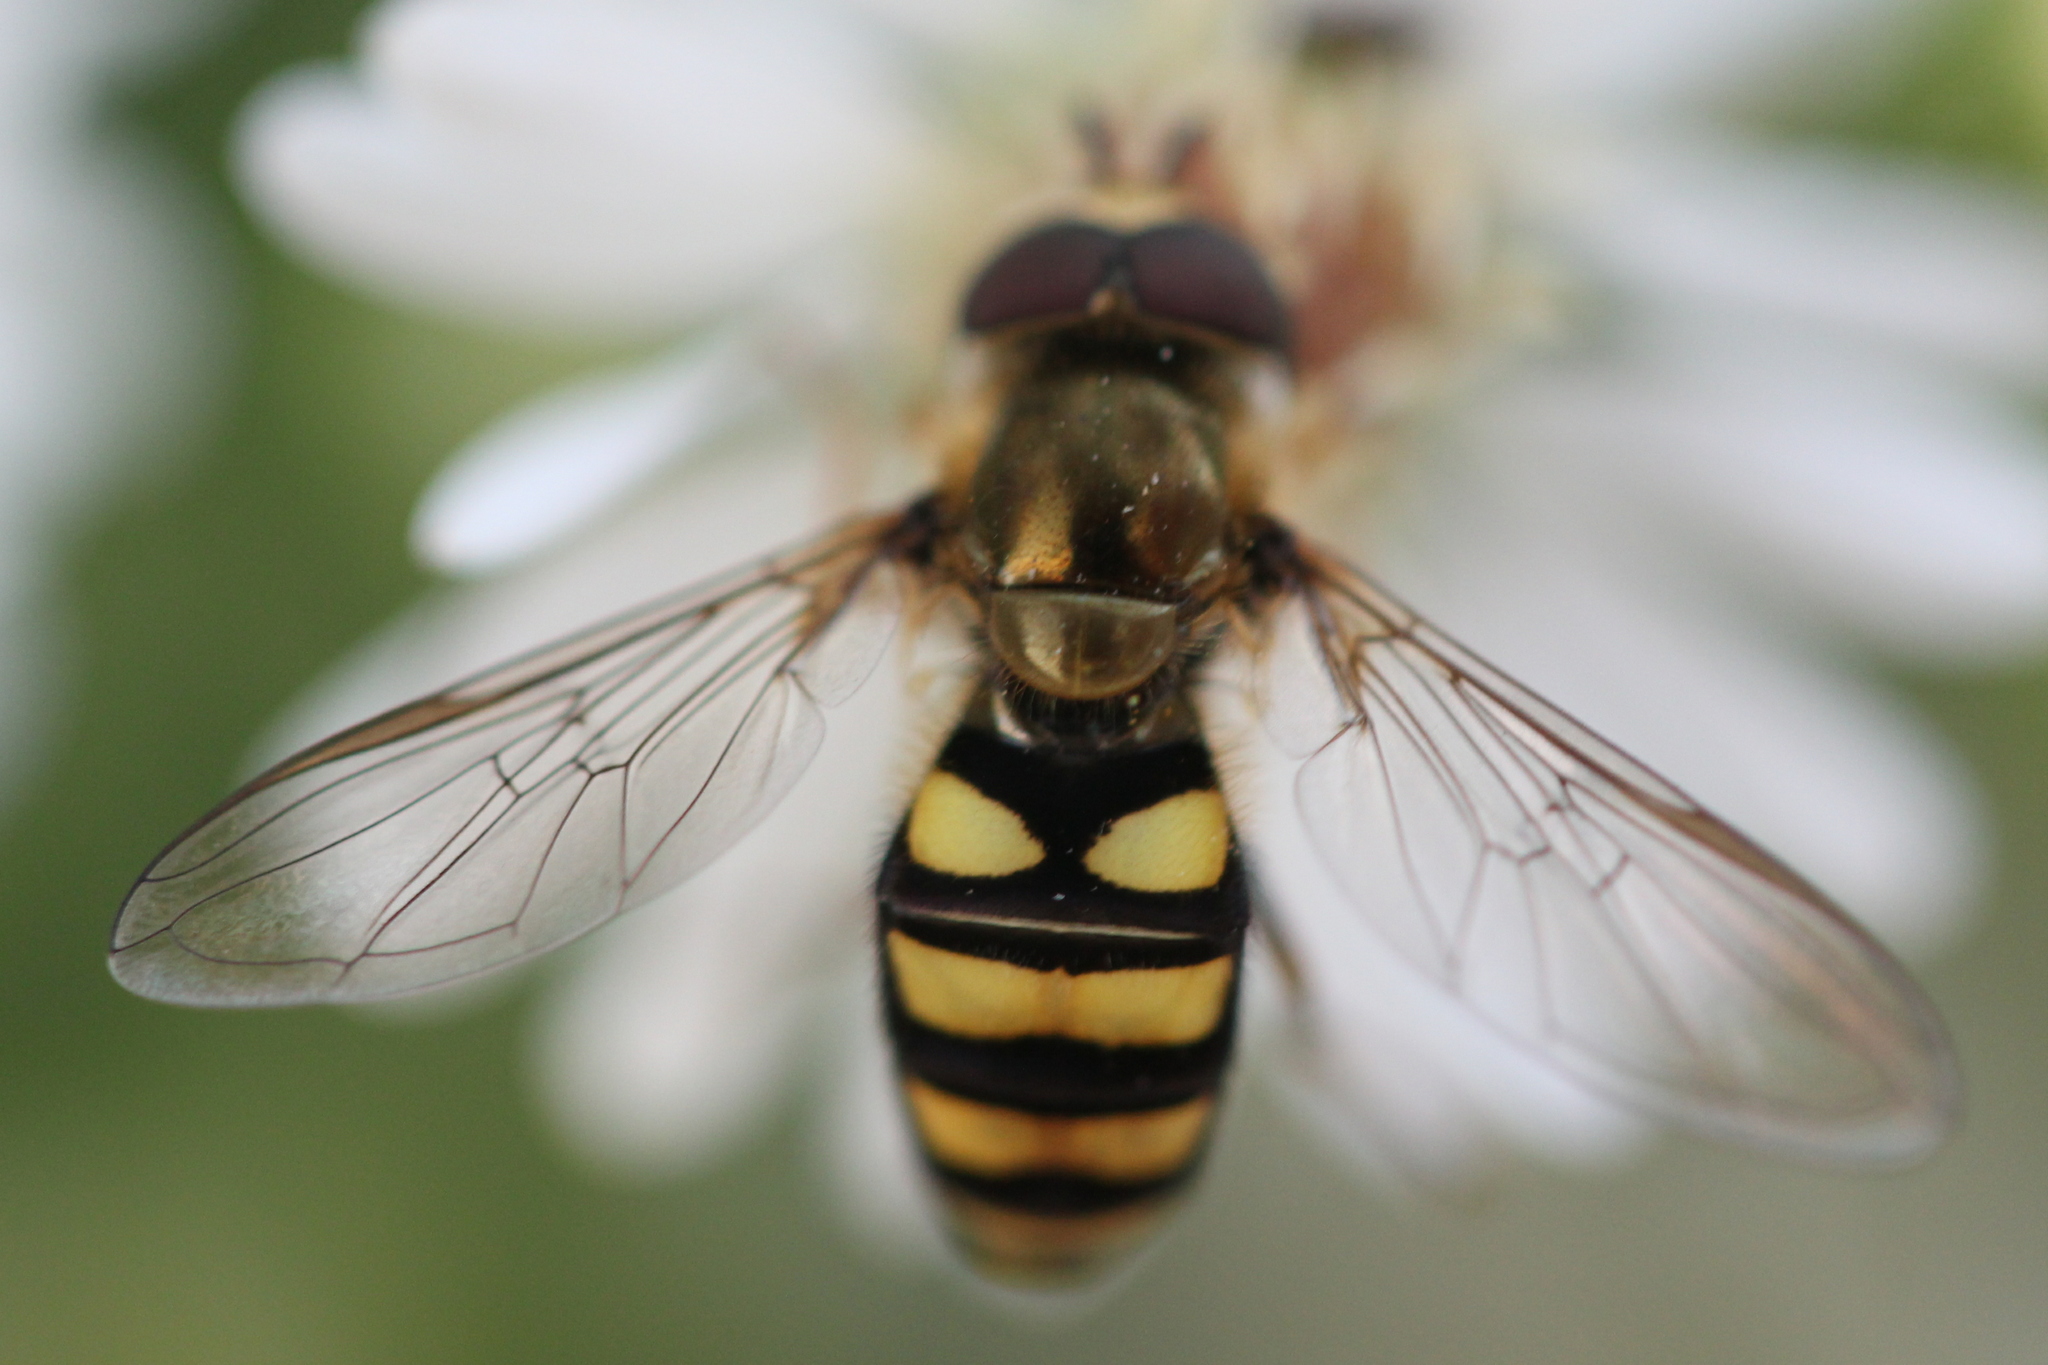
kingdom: Animalia
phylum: Arthropoda
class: Insecta
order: Diptera
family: Syrphidae
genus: Eupeodes
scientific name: Eupeodes
